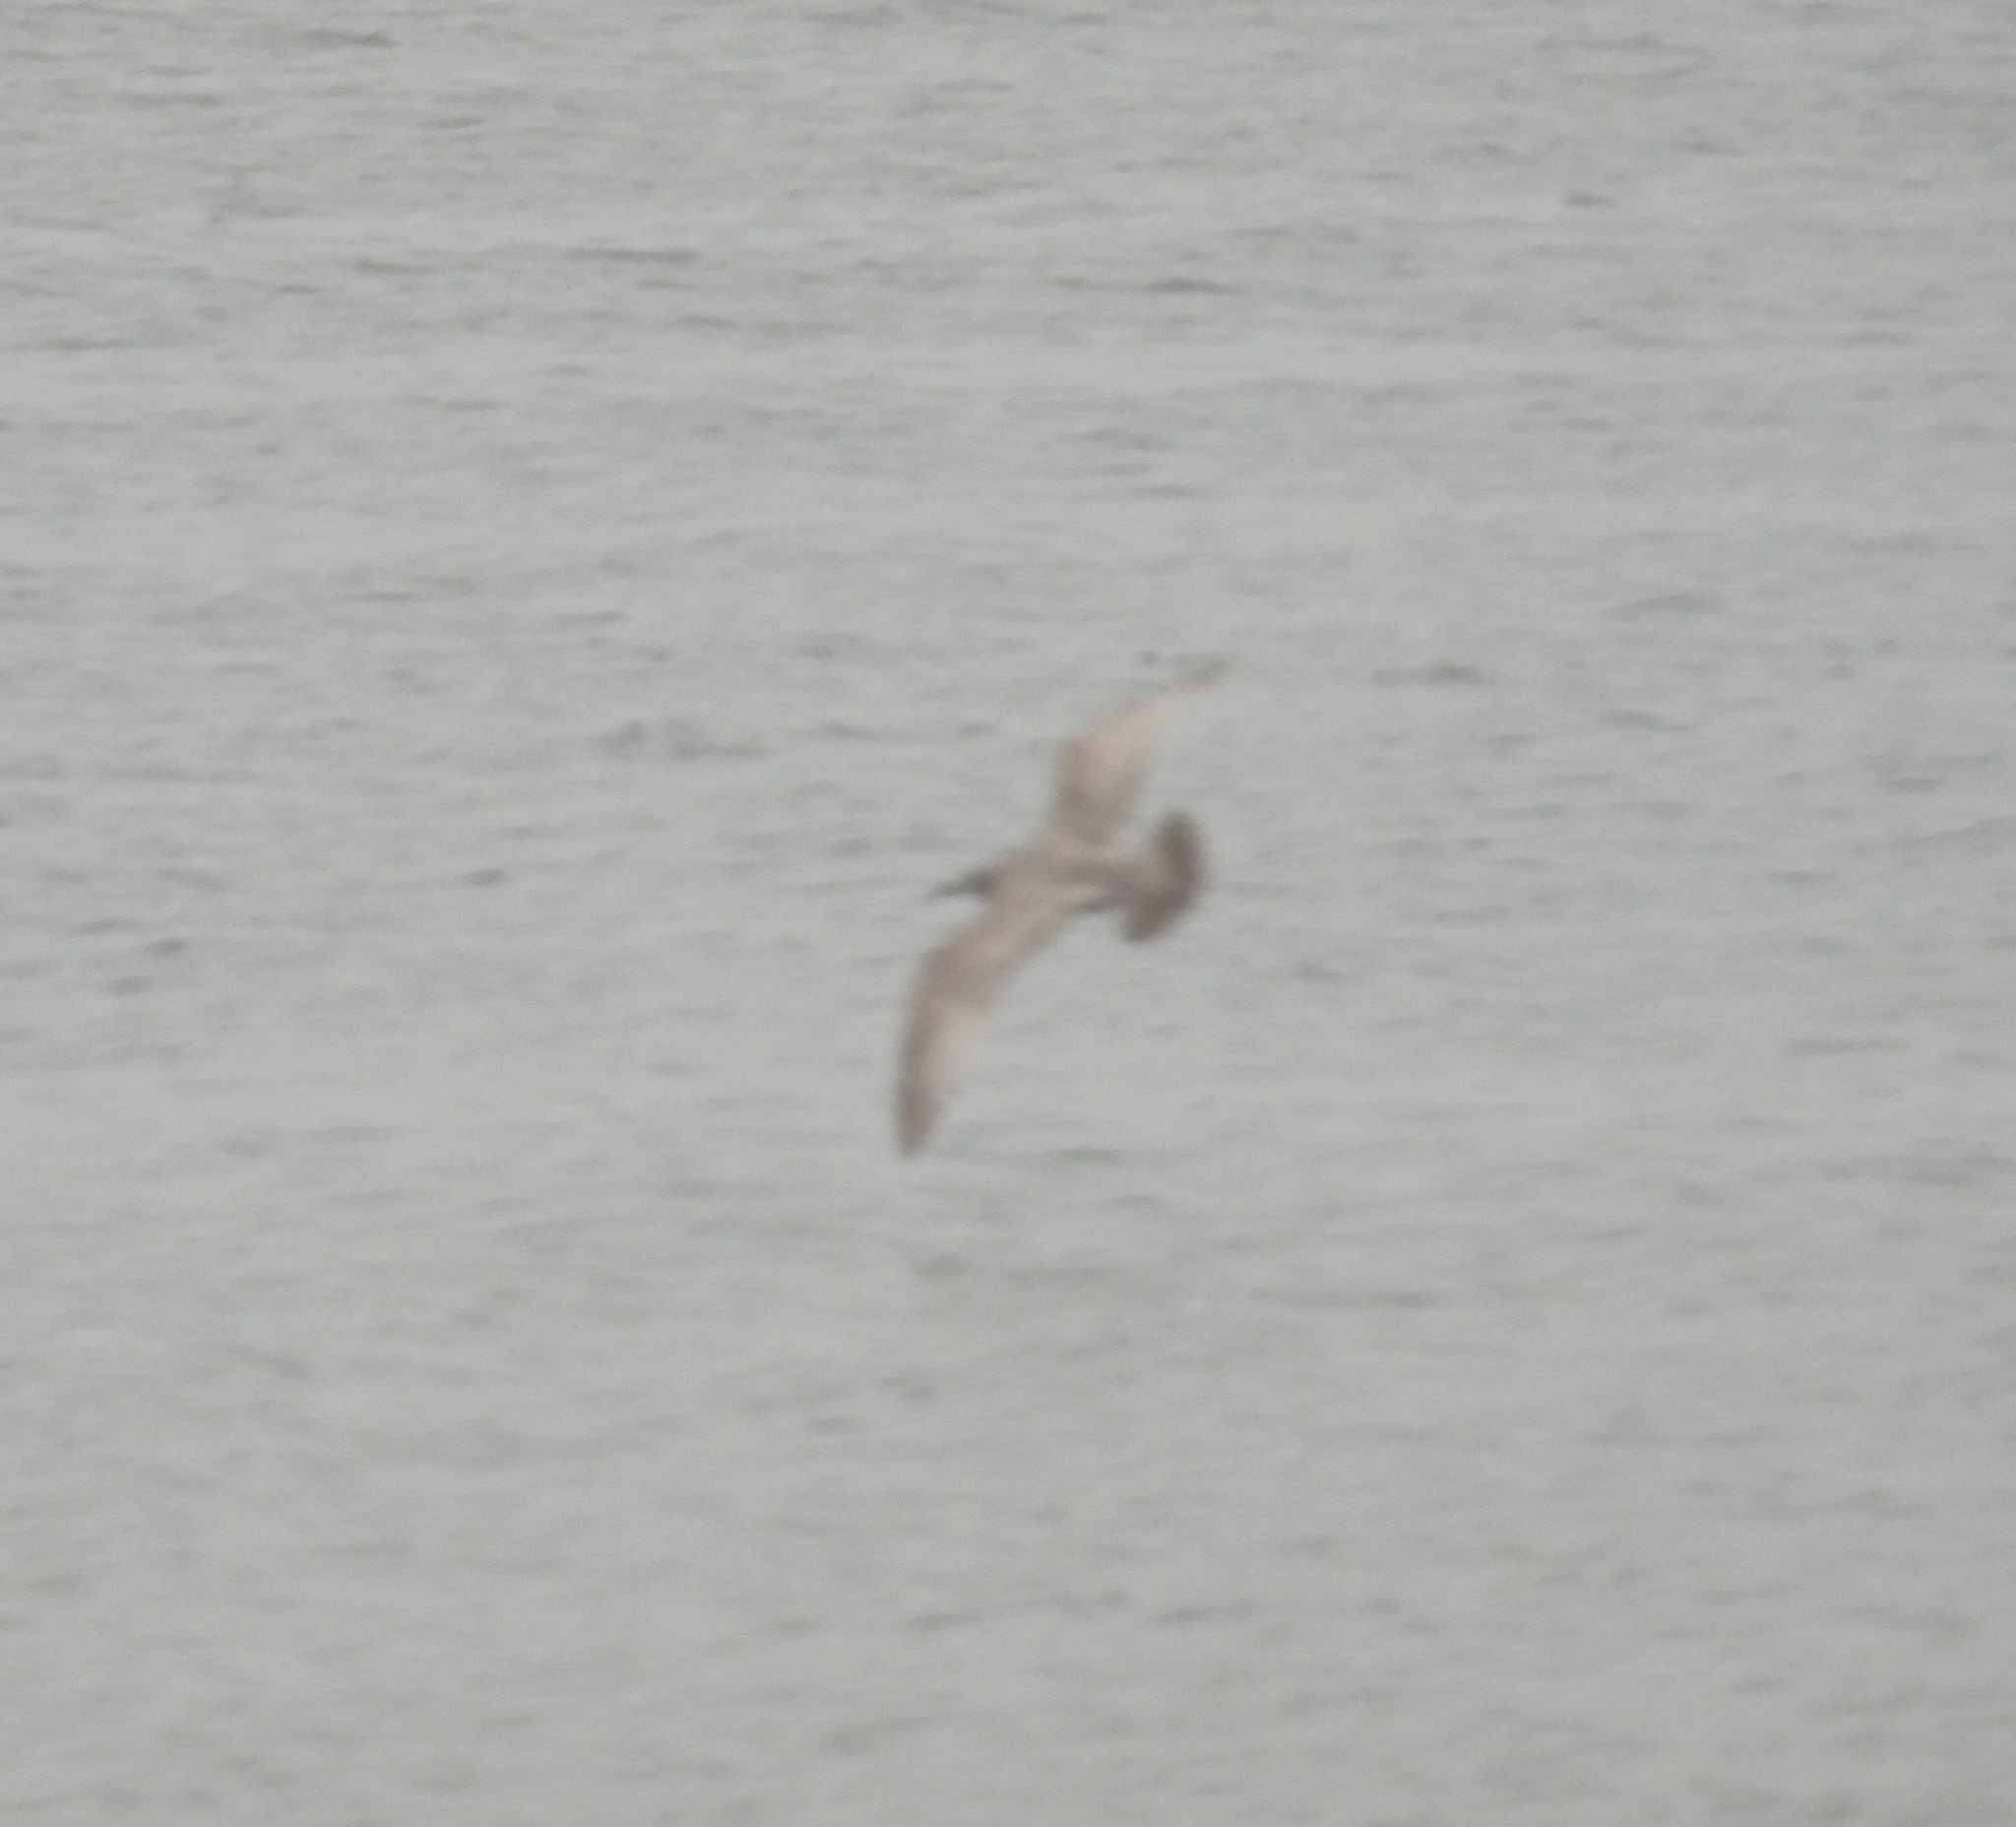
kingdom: Animalia
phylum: Chordata
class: Aves
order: Charadriiformes
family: Laridae
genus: Larus
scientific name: Larus glaucoides
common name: Iceland gull
